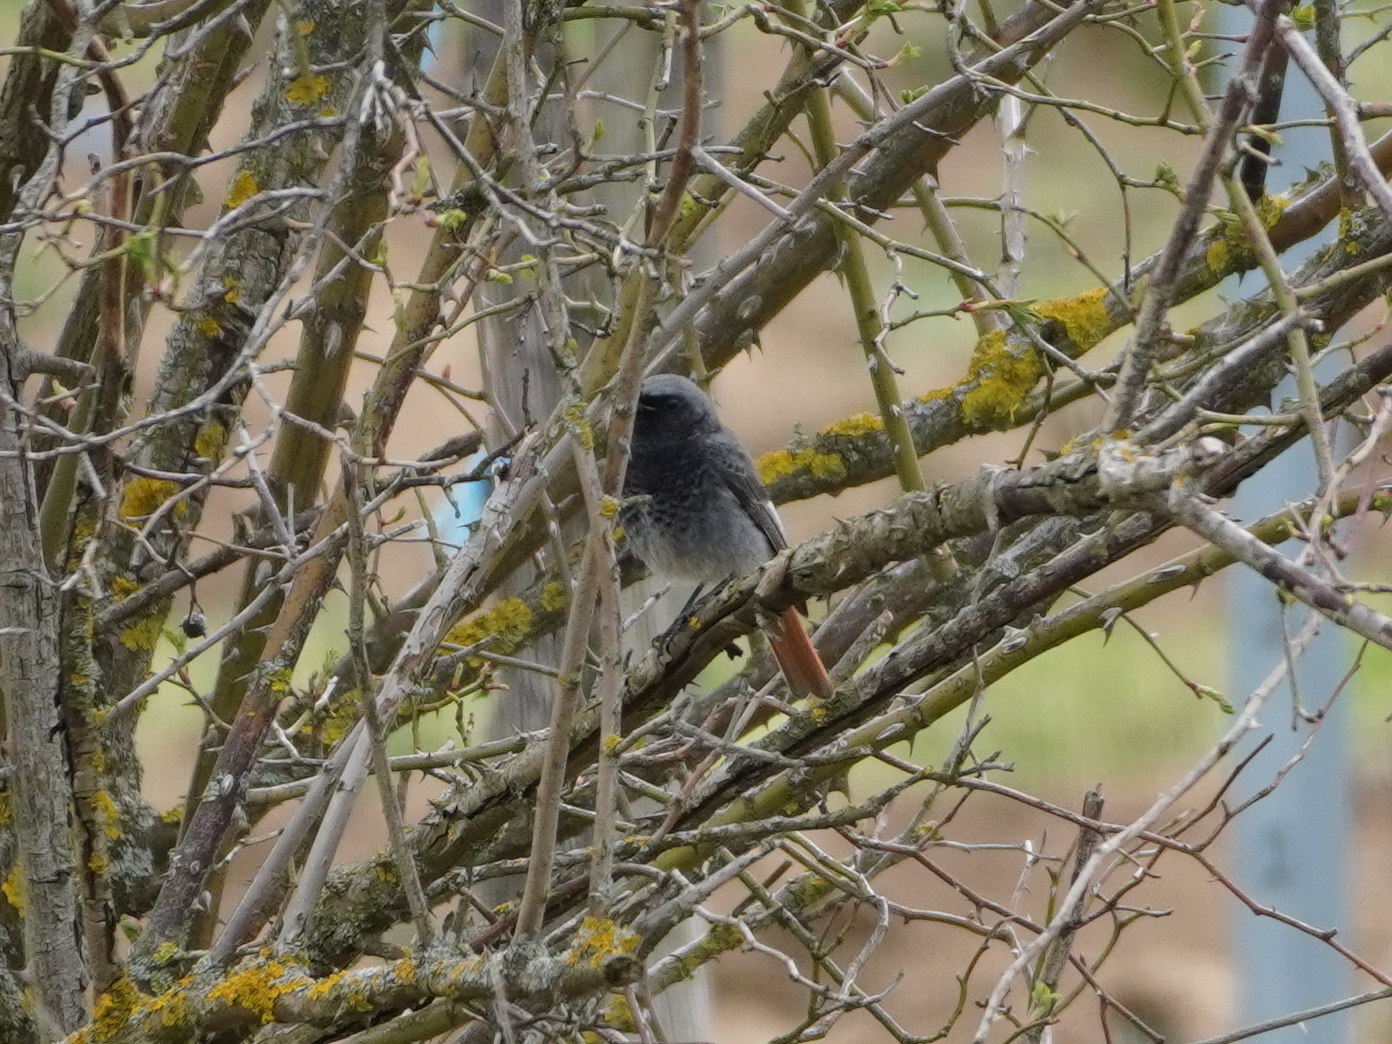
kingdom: Animalia
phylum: Chordata
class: Aves
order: Passeriformes
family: Muscicapidae
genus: Phoenicurus
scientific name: Phoenicurus ochruros
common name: Black redstart
